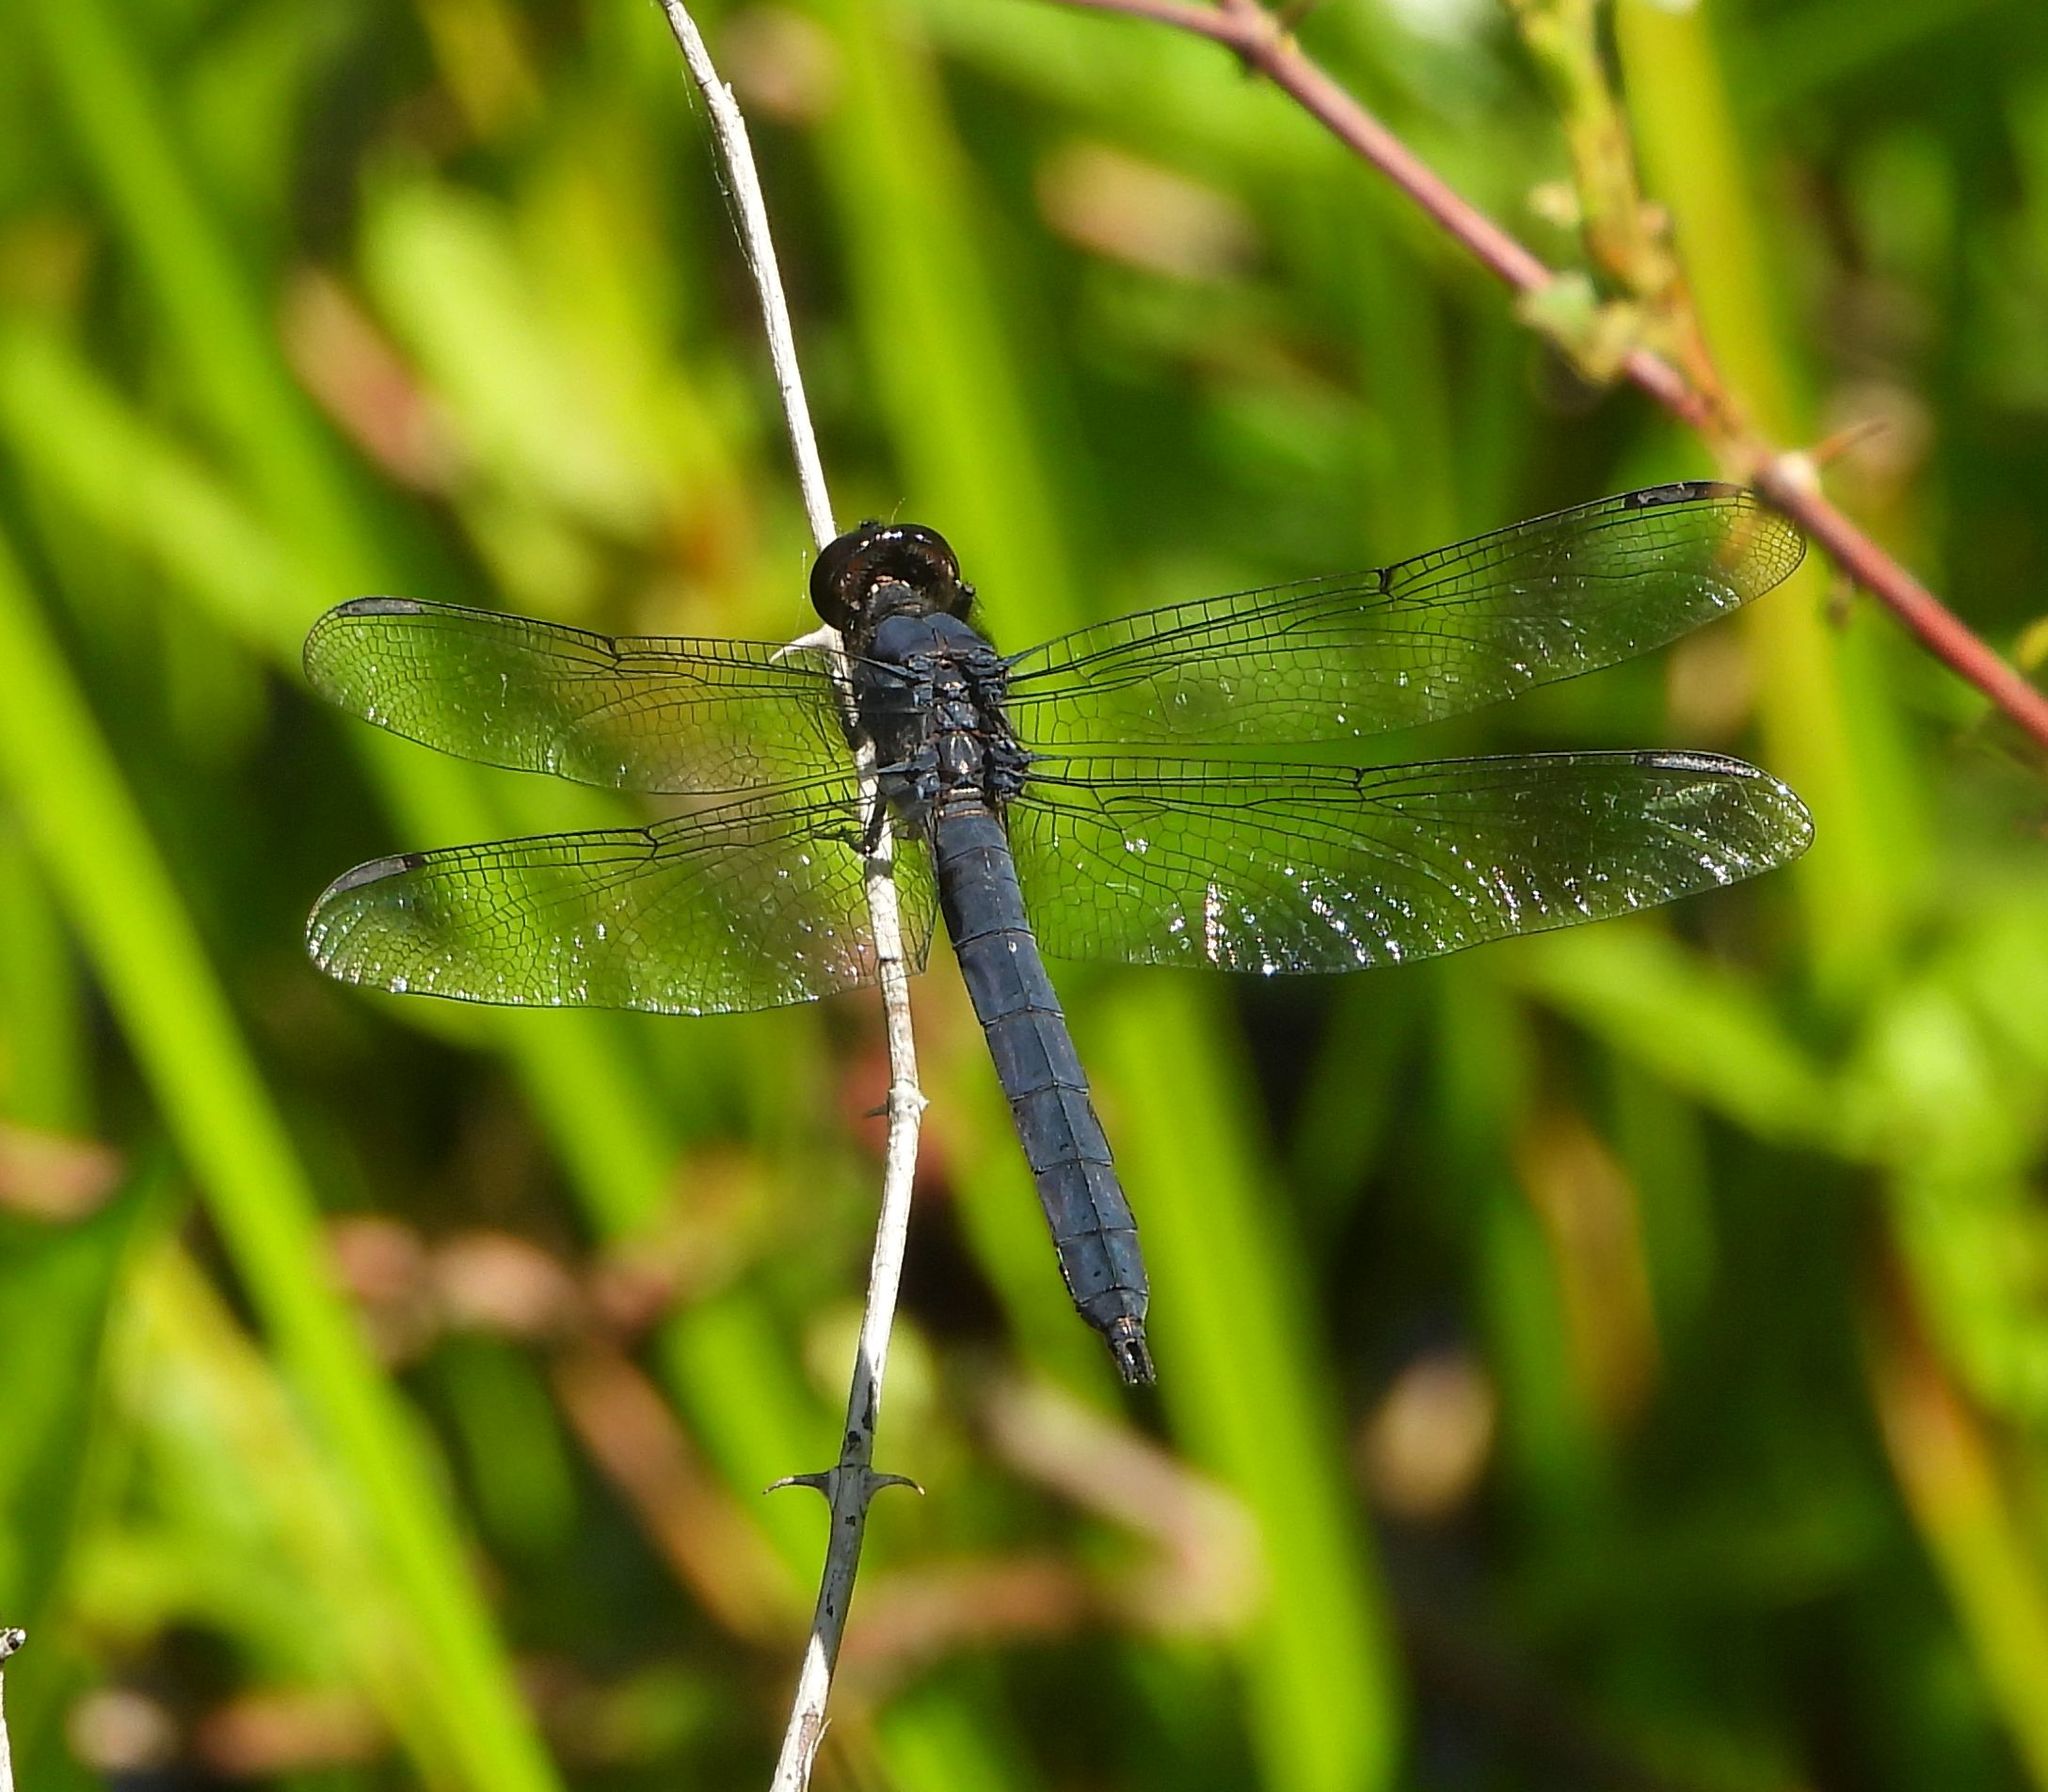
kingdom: Animalia
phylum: Arthropoda
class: Insecta
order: Odonata
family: Libellulidae
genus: Libellula
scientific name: Libellula incesta
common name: Slaty skimmer
